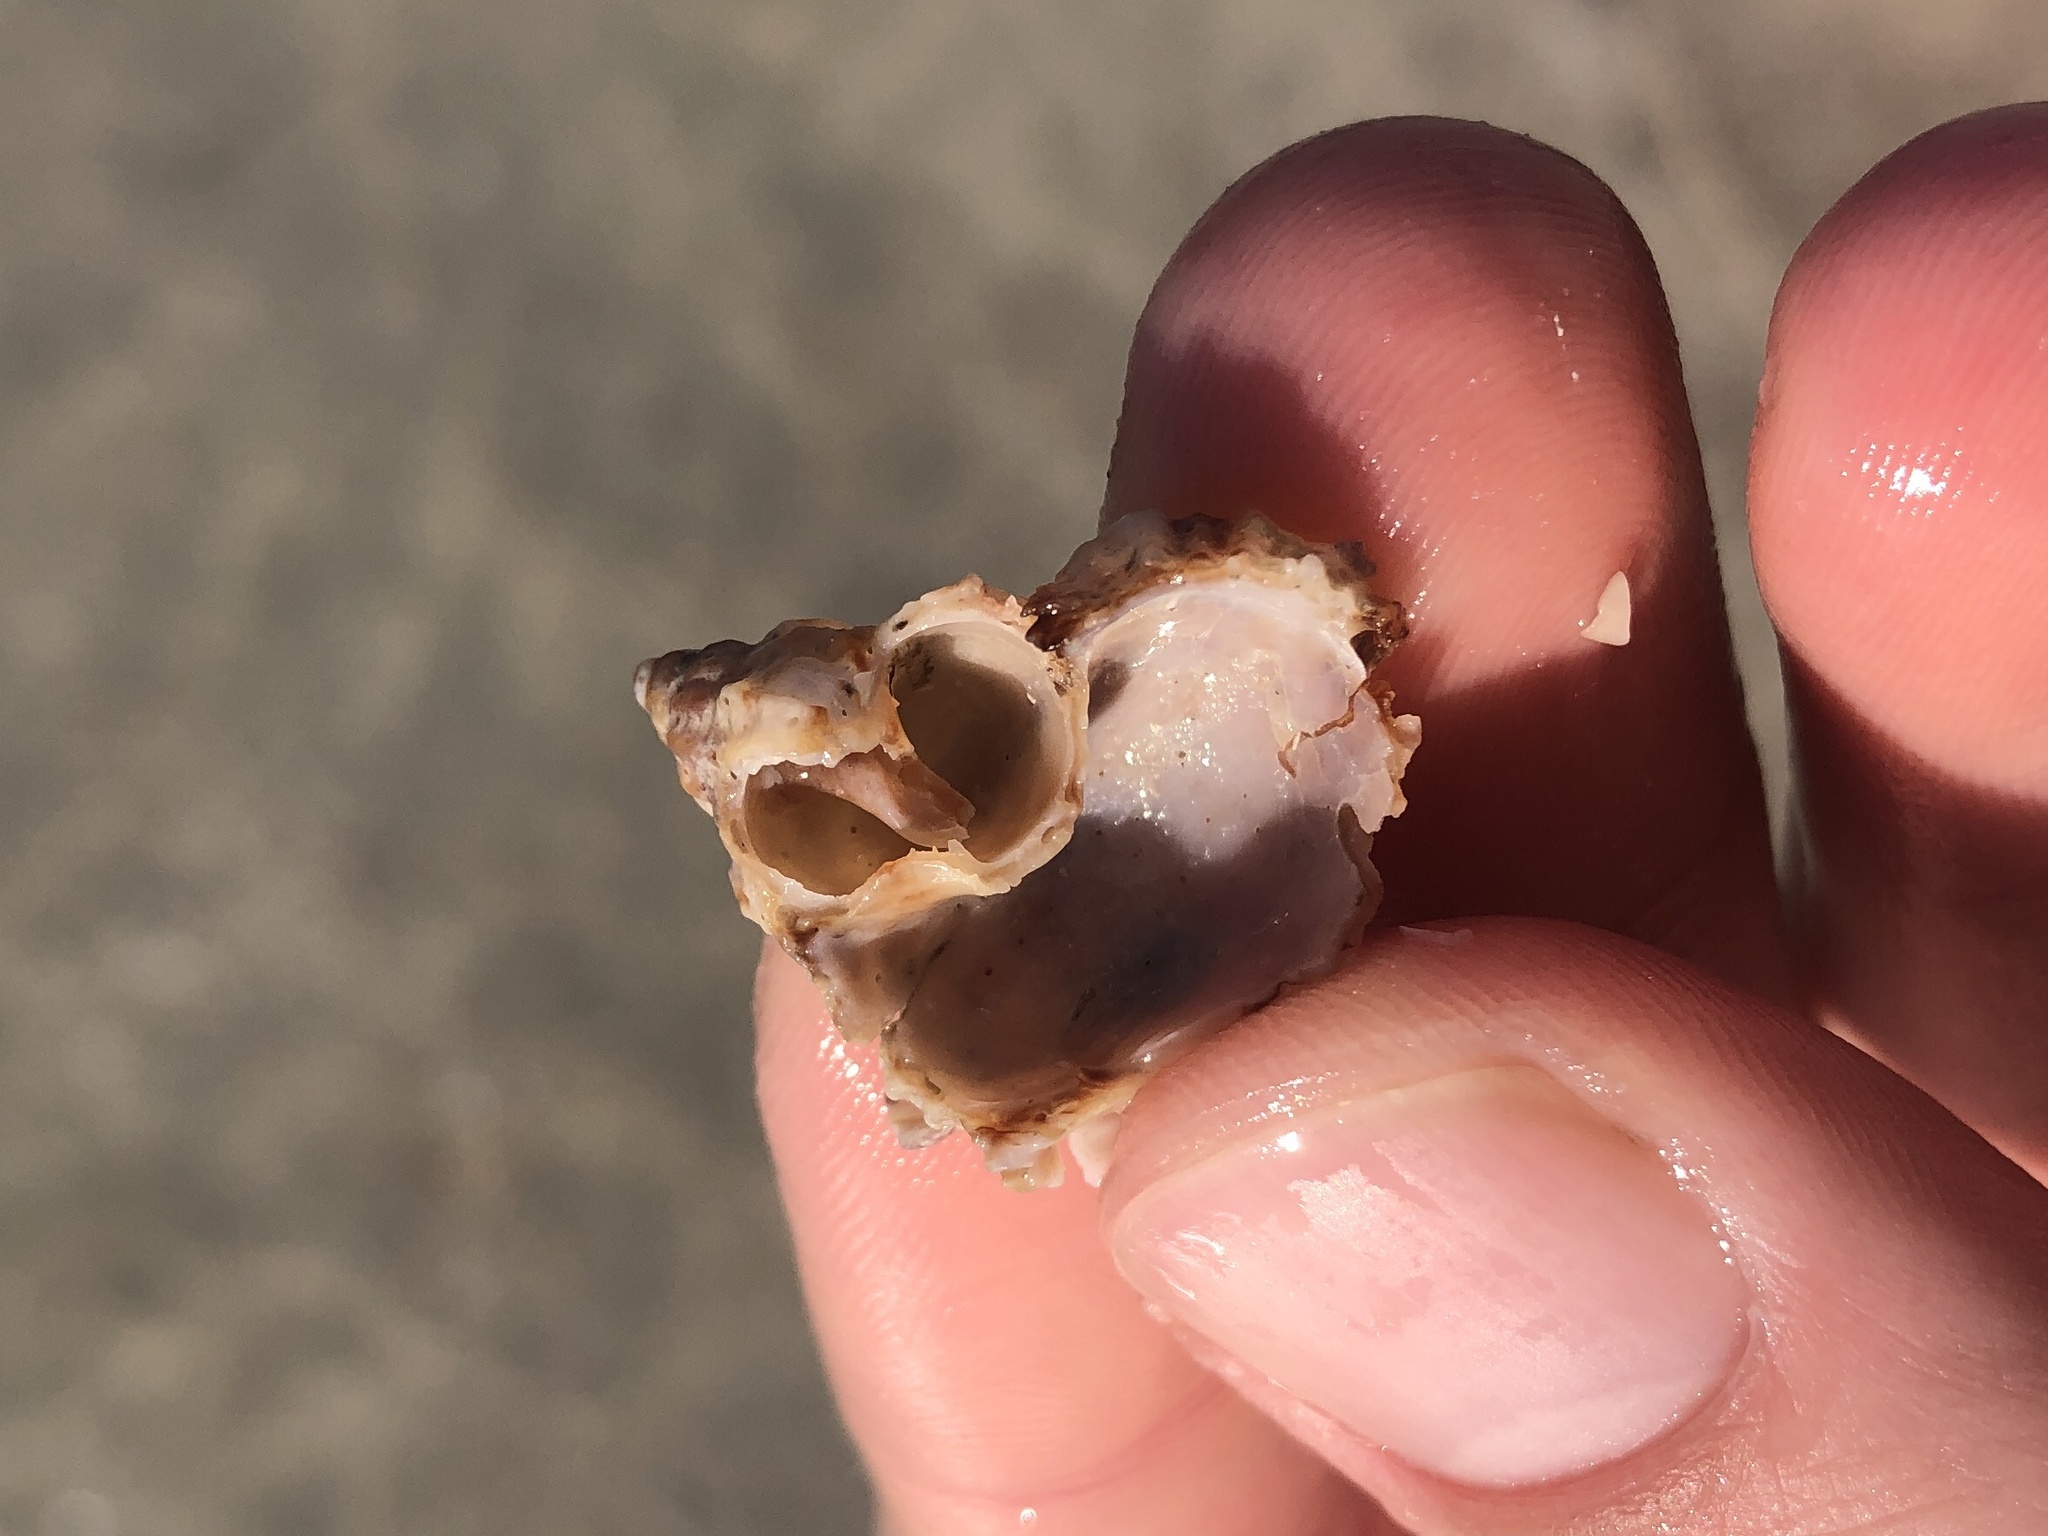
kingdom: Animalia
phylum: Mollusca
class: Gastropoda
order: Neogastropoda
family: Muricidae
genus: Phyllonotus
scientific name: Phyllonotus pomum
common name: Apple murex
